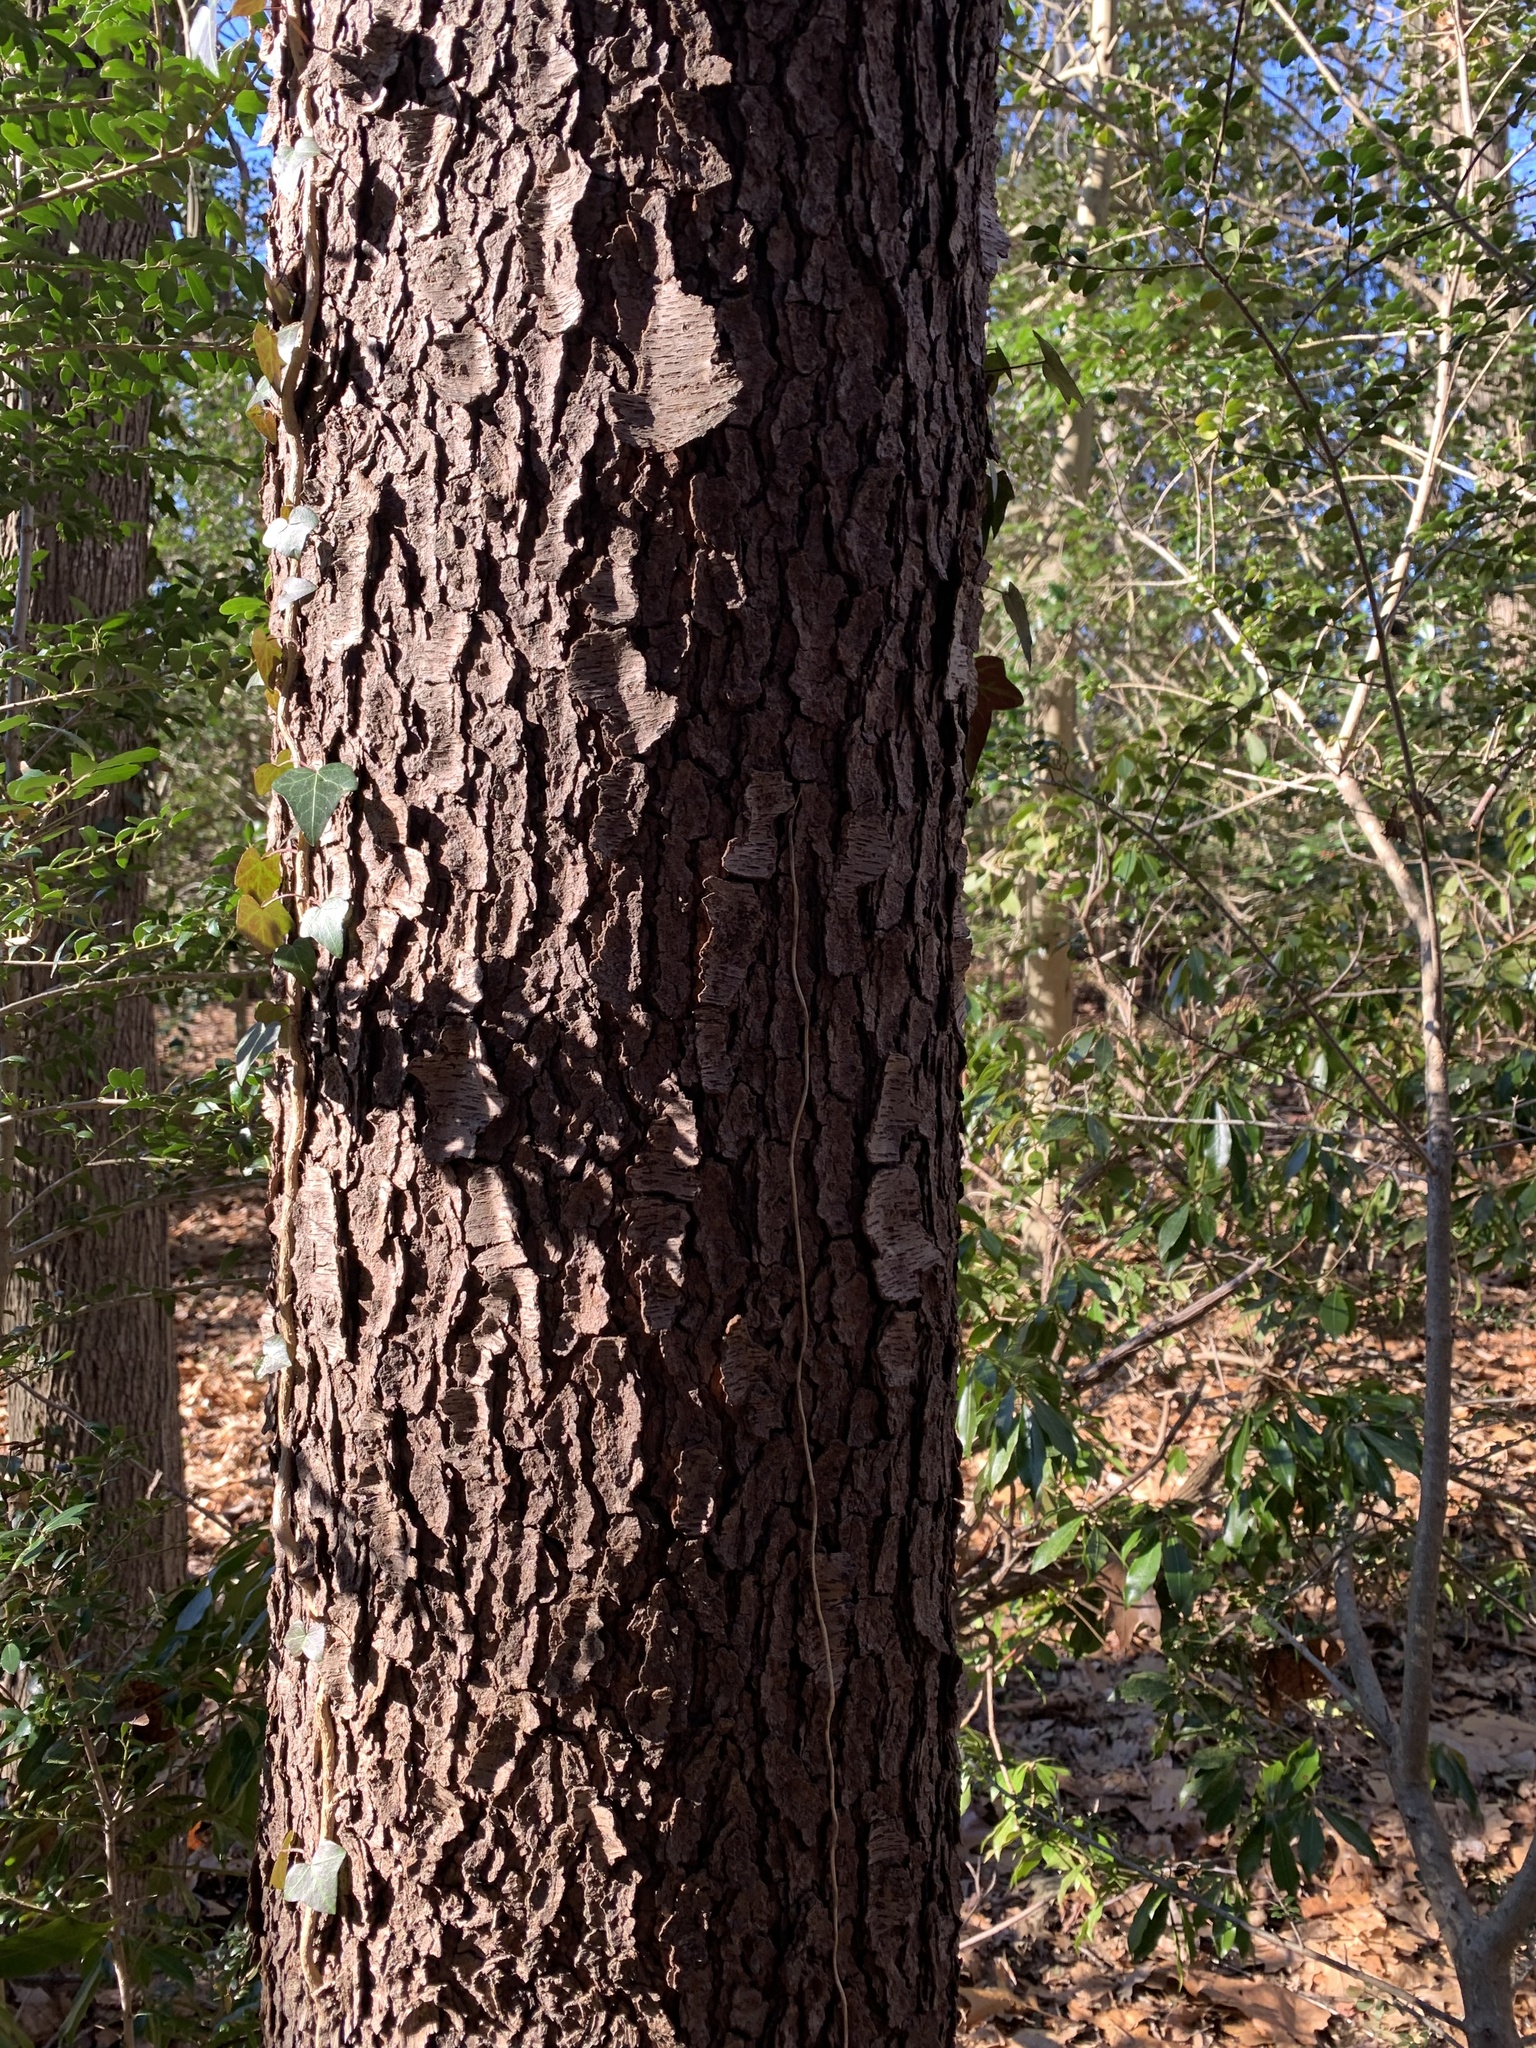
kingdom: Plantae
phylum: Tracheophyta
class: Magnoliopsida
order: Rosales
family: Rosaceae
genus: Prunus
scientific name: Prunus serotina
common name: Black cherry
